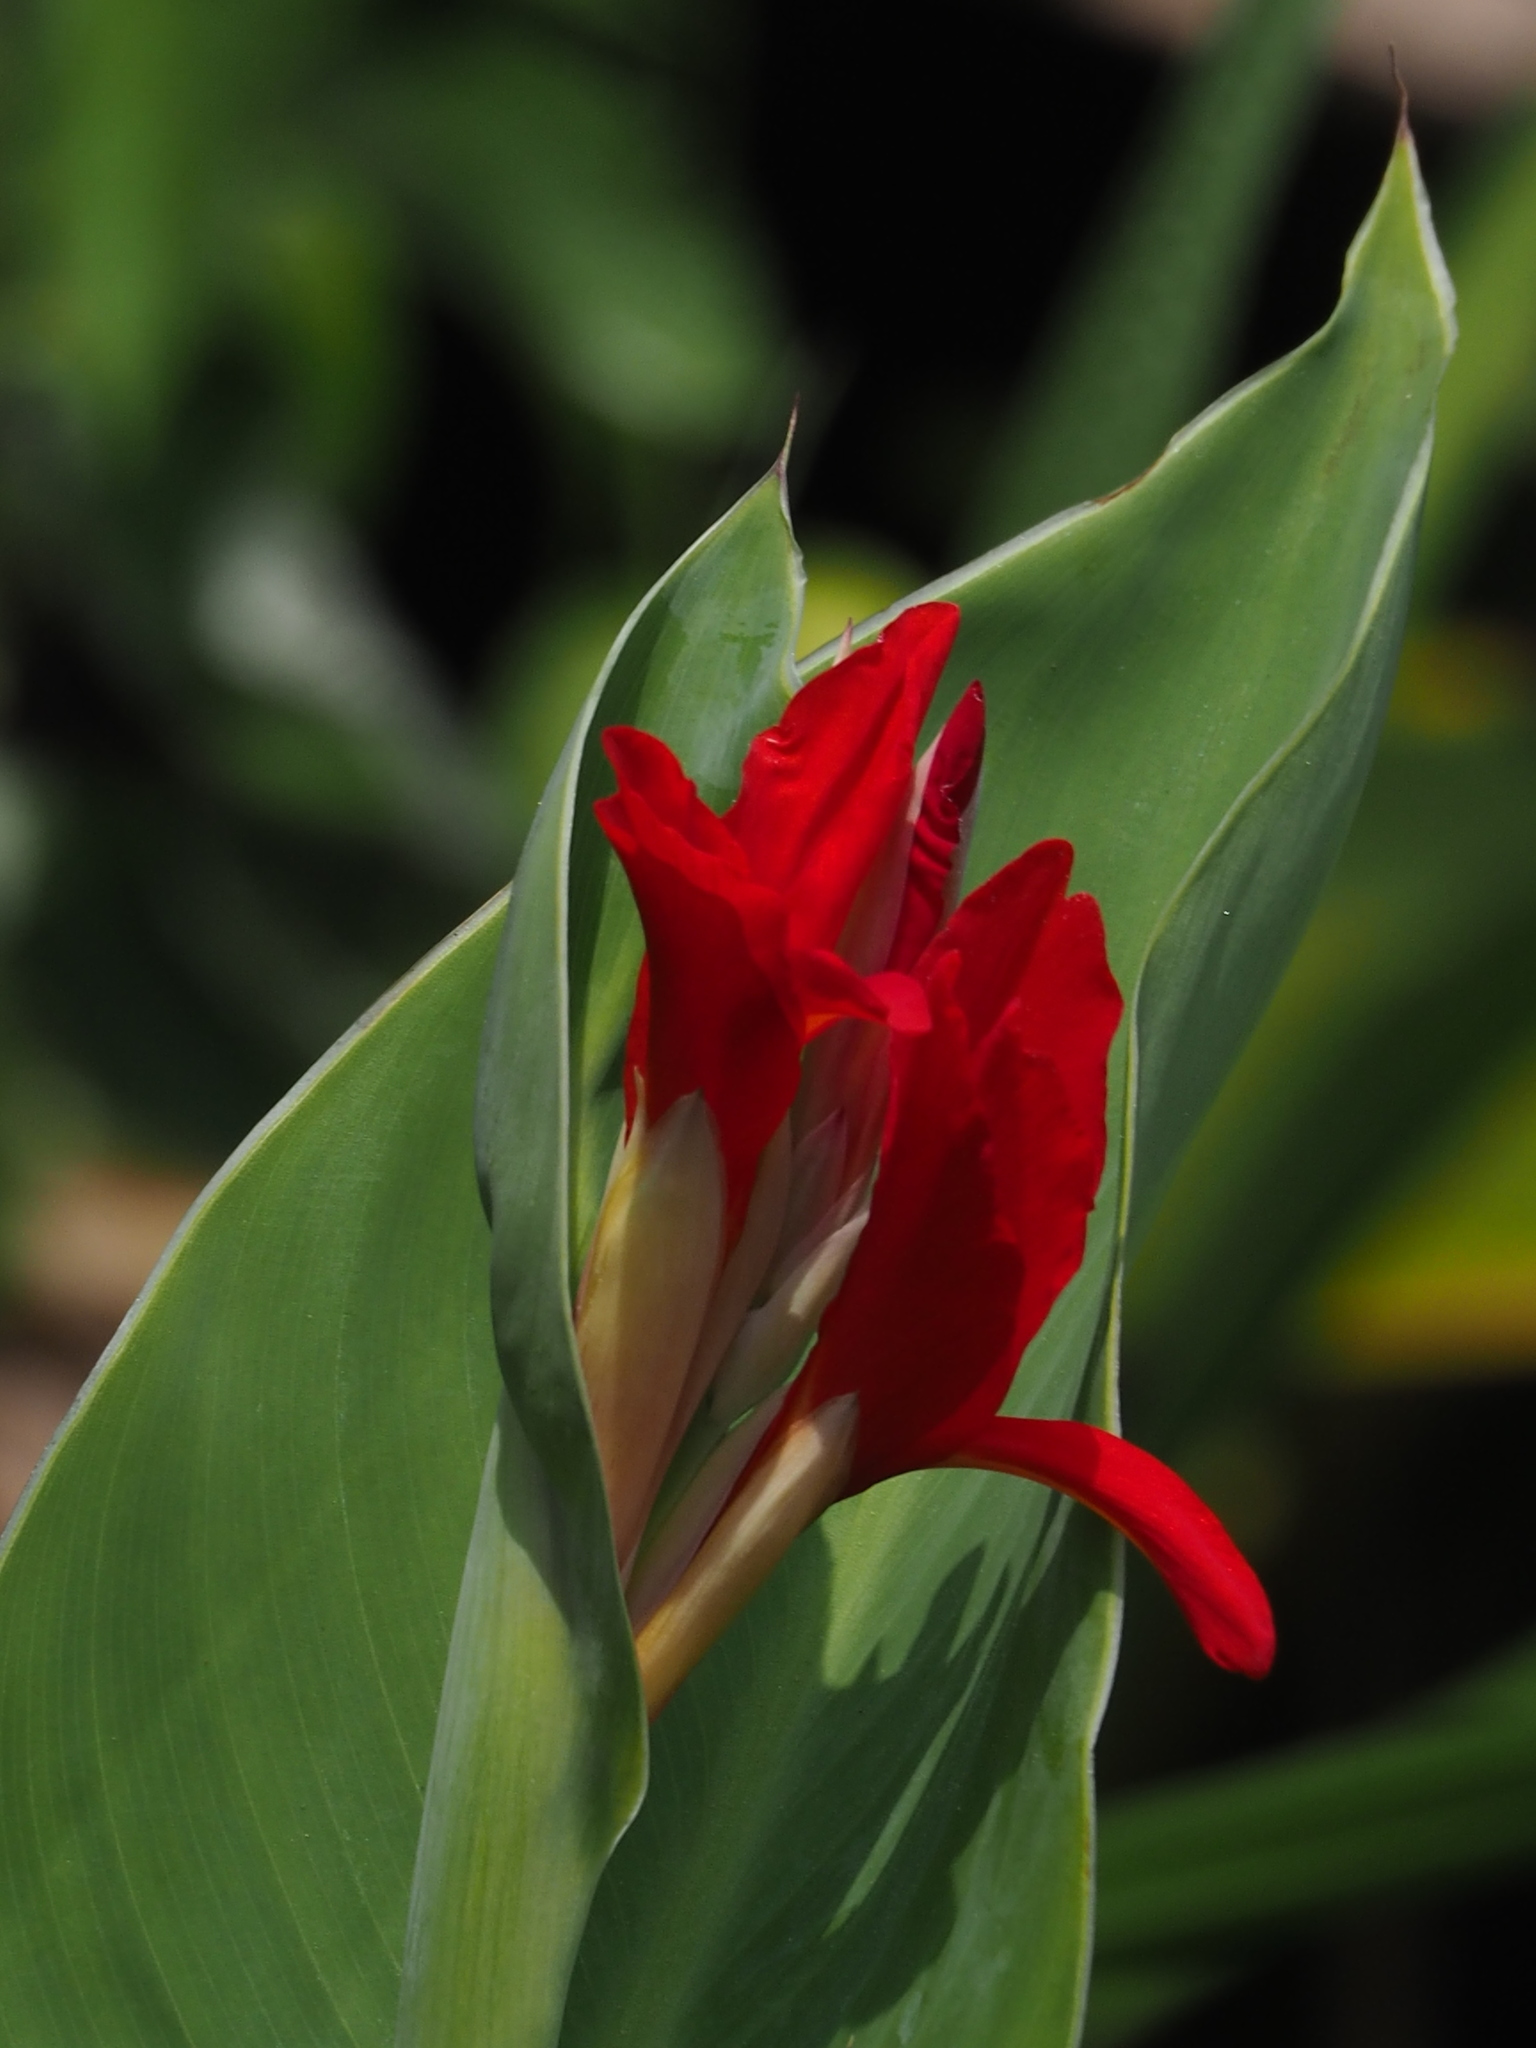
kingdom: Plantae
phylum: Tracheophyta
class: Liliopsida
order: Zingiberales
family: Cannaceae
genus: Canna
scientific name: Canna indica
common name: Indian shot
